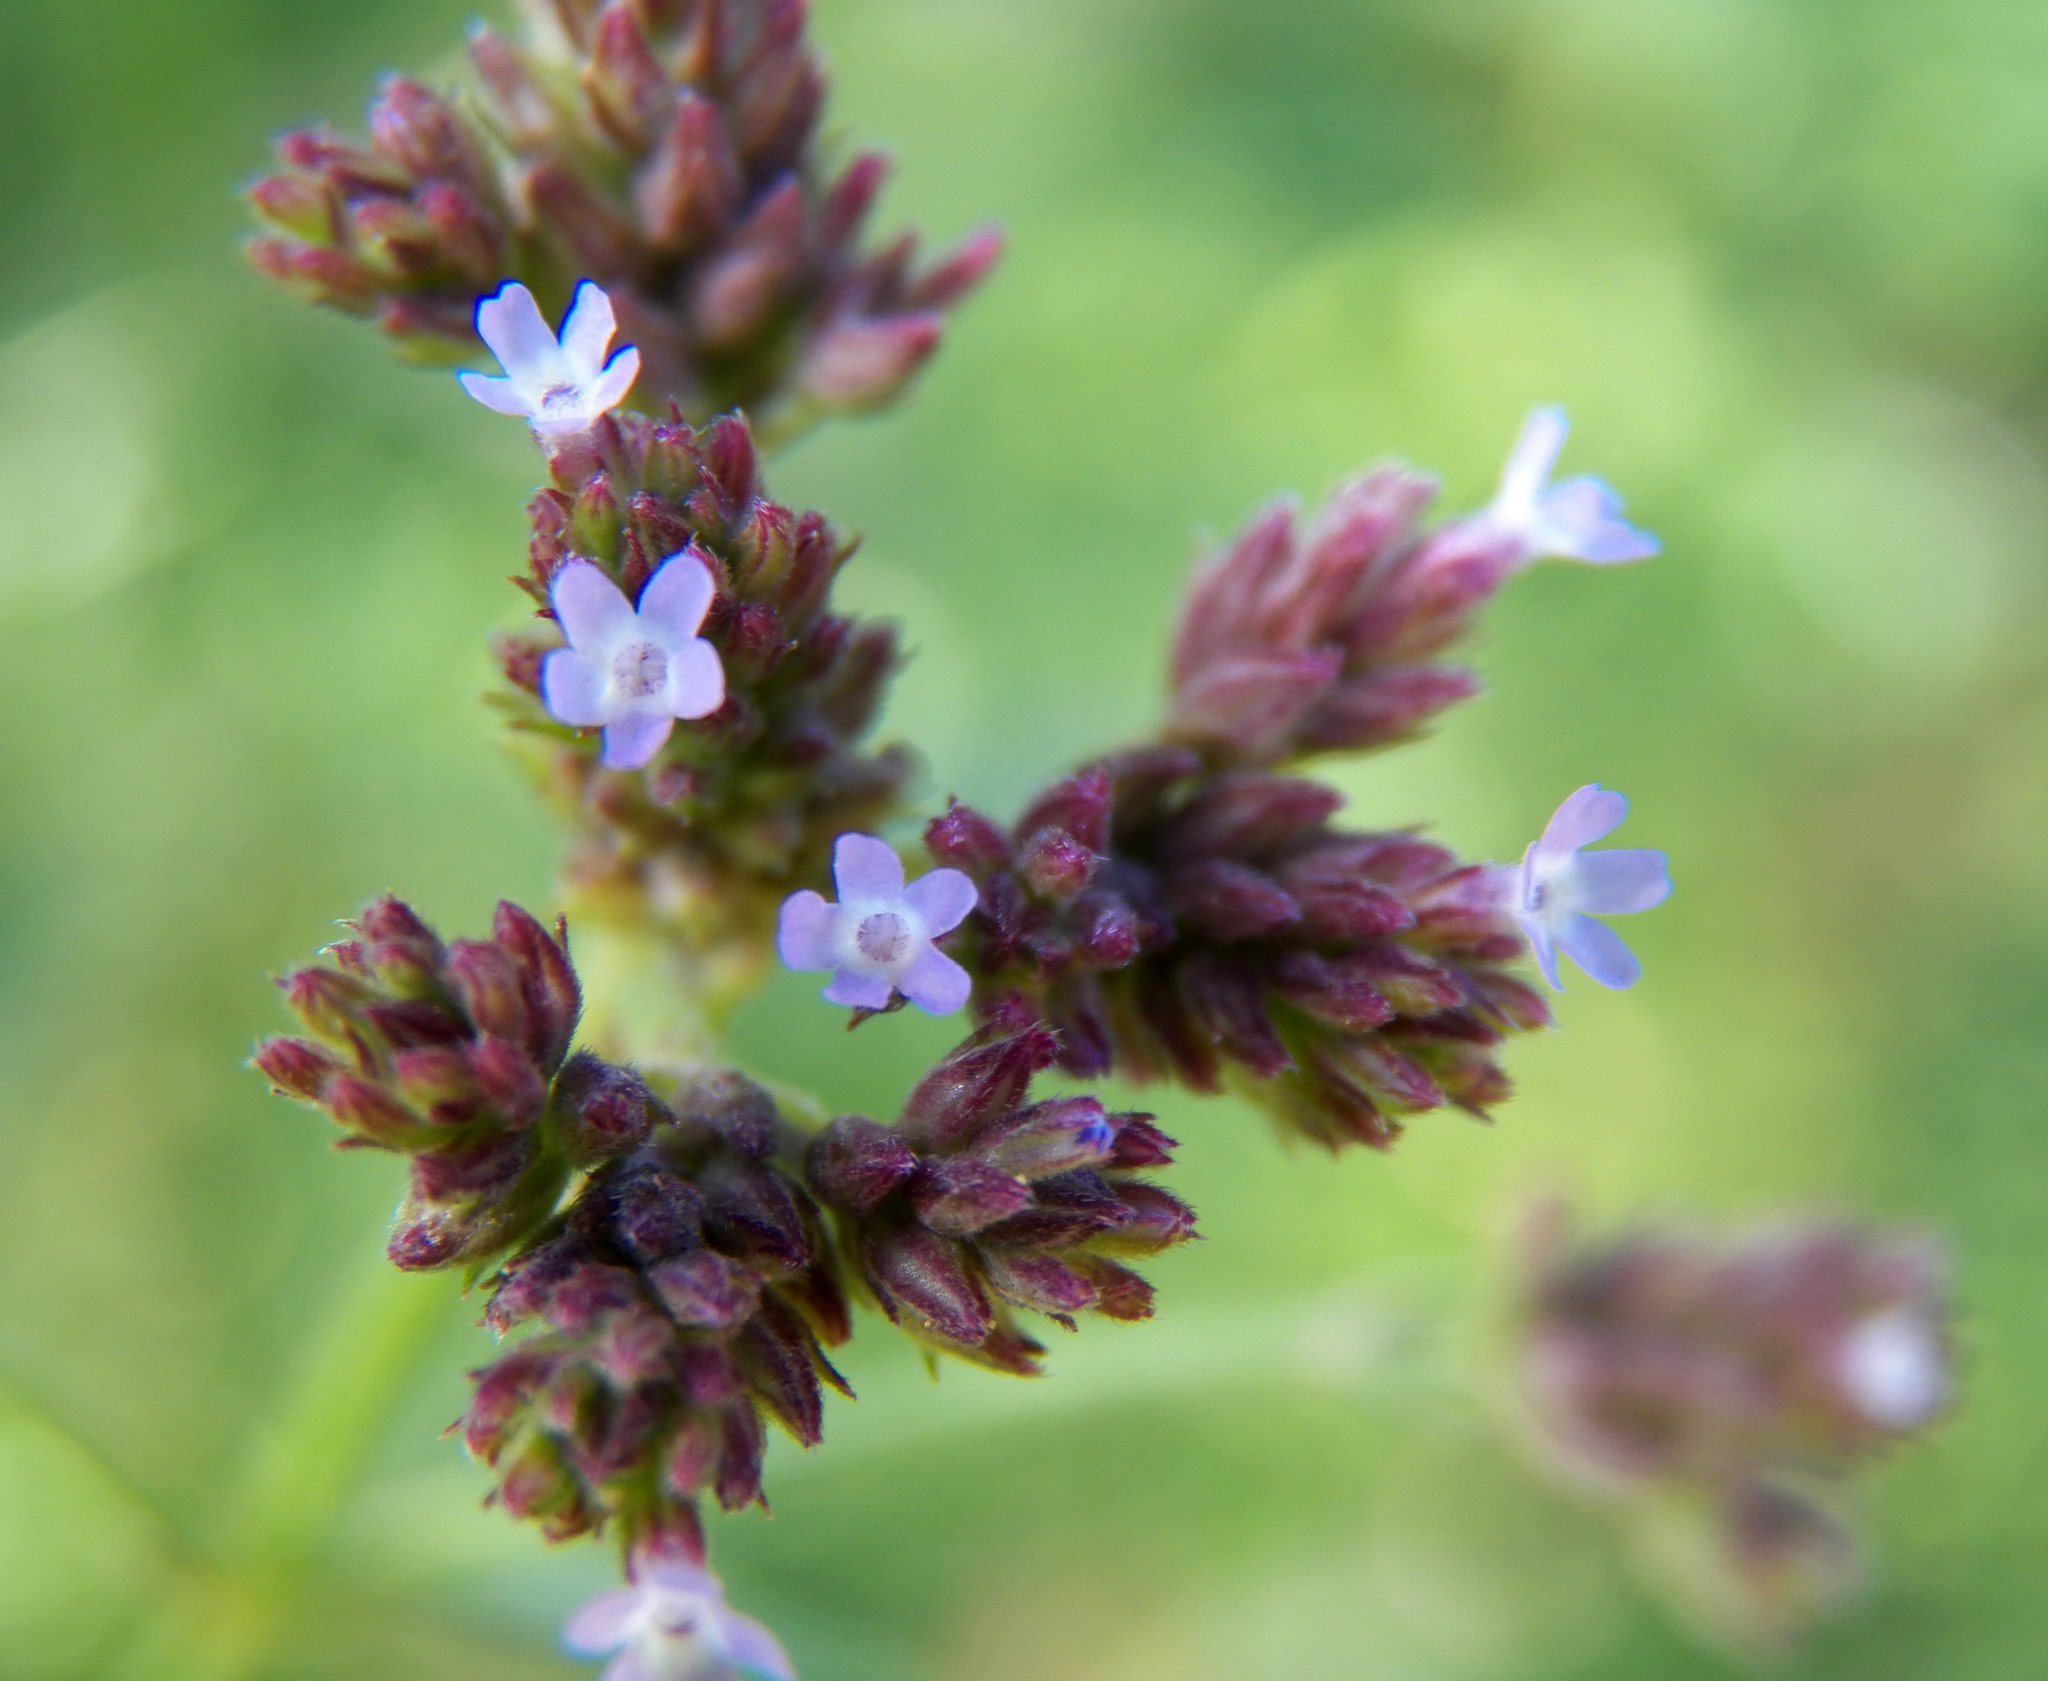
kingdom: Plantae
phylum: Tracheophyta
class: Magnoliopsida
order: Lamiales
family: Verbenaceae
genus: Verbena
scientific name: Verbena brasiliensis
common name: Brazilian vervain
